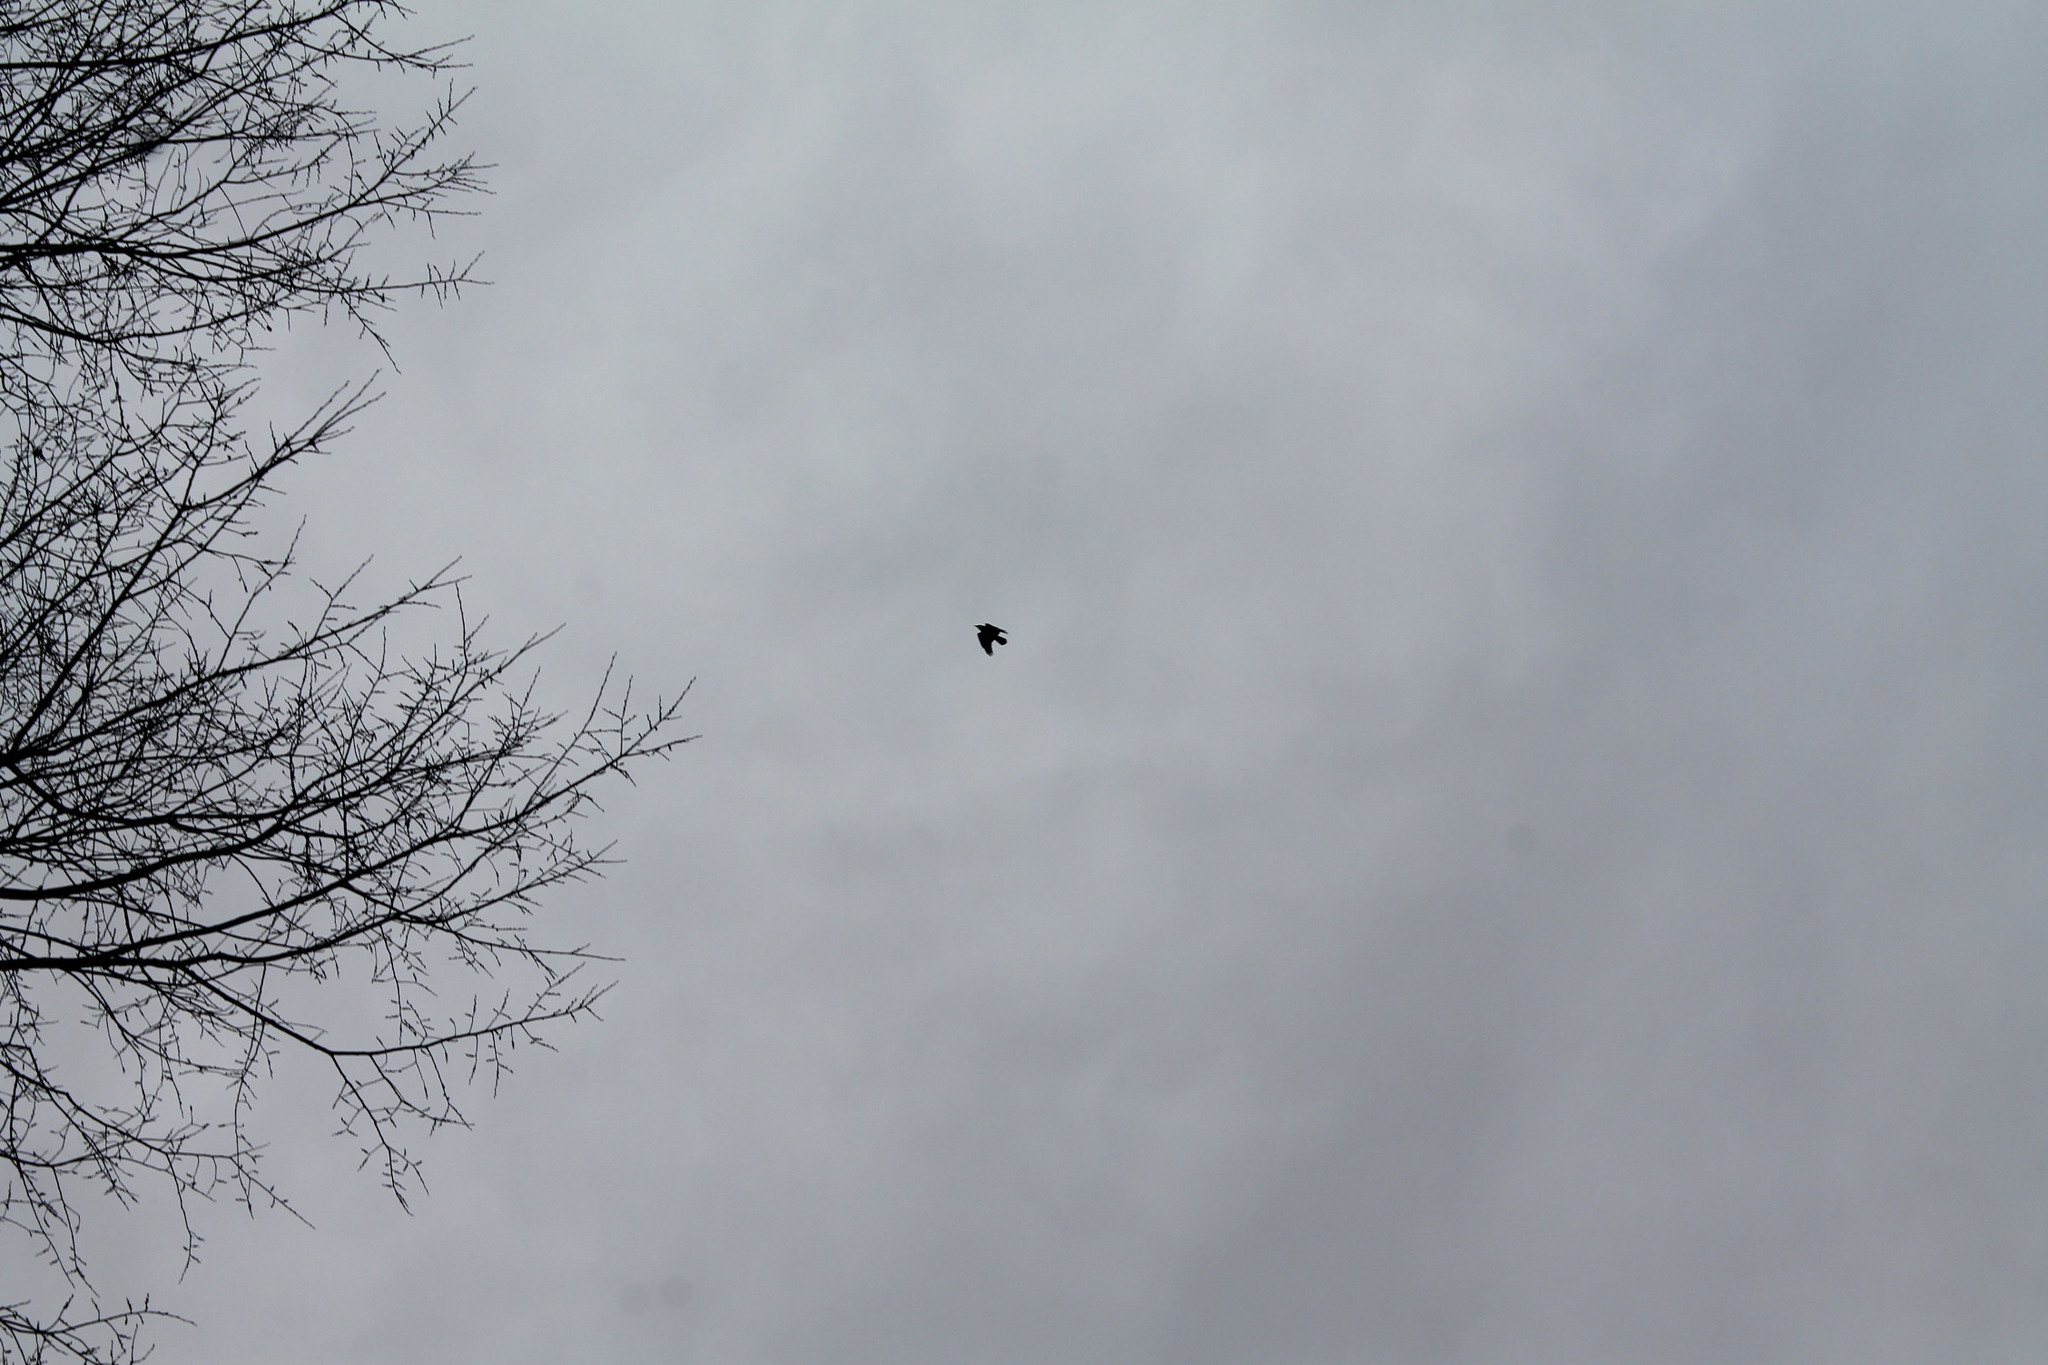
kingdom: Animalia
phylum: Chordata
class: Aves
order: Passeriformes
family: Corvidae
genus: Corvus
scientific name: Corvus ossifragus
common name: Fish crow
